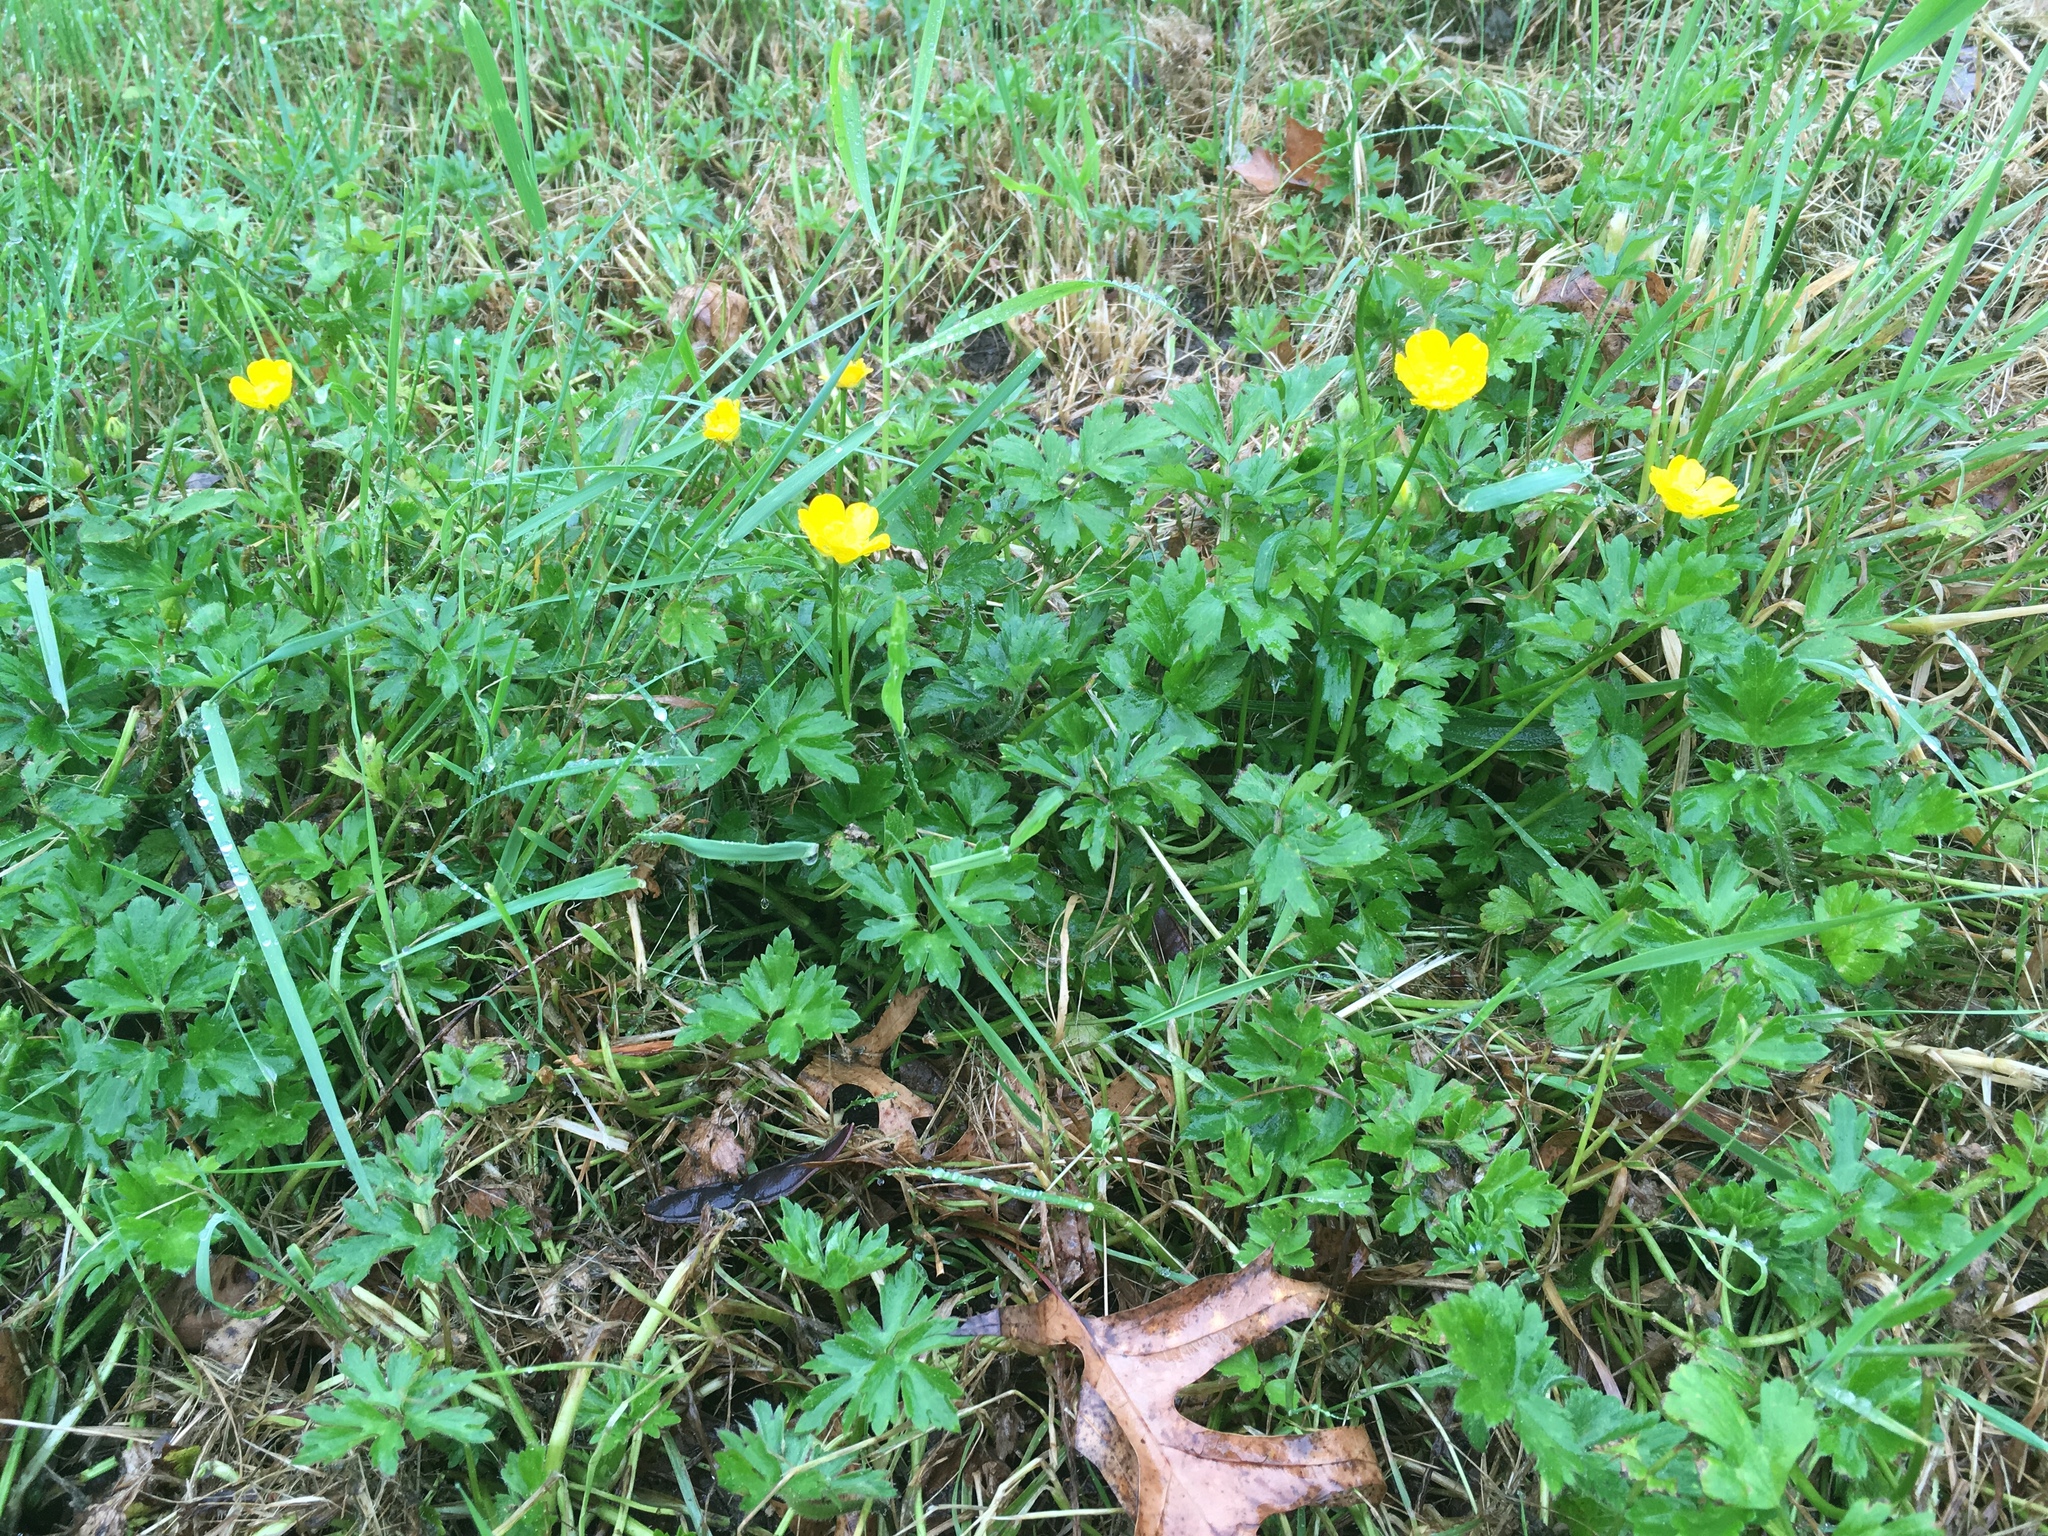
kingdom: Plantae
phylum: Tracheophyta
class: Magnoliopsida
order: Ranunculales
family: Ranunculaceae
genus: Ranunculus
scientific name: Ranunculus repens
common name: Creeping buttercup
